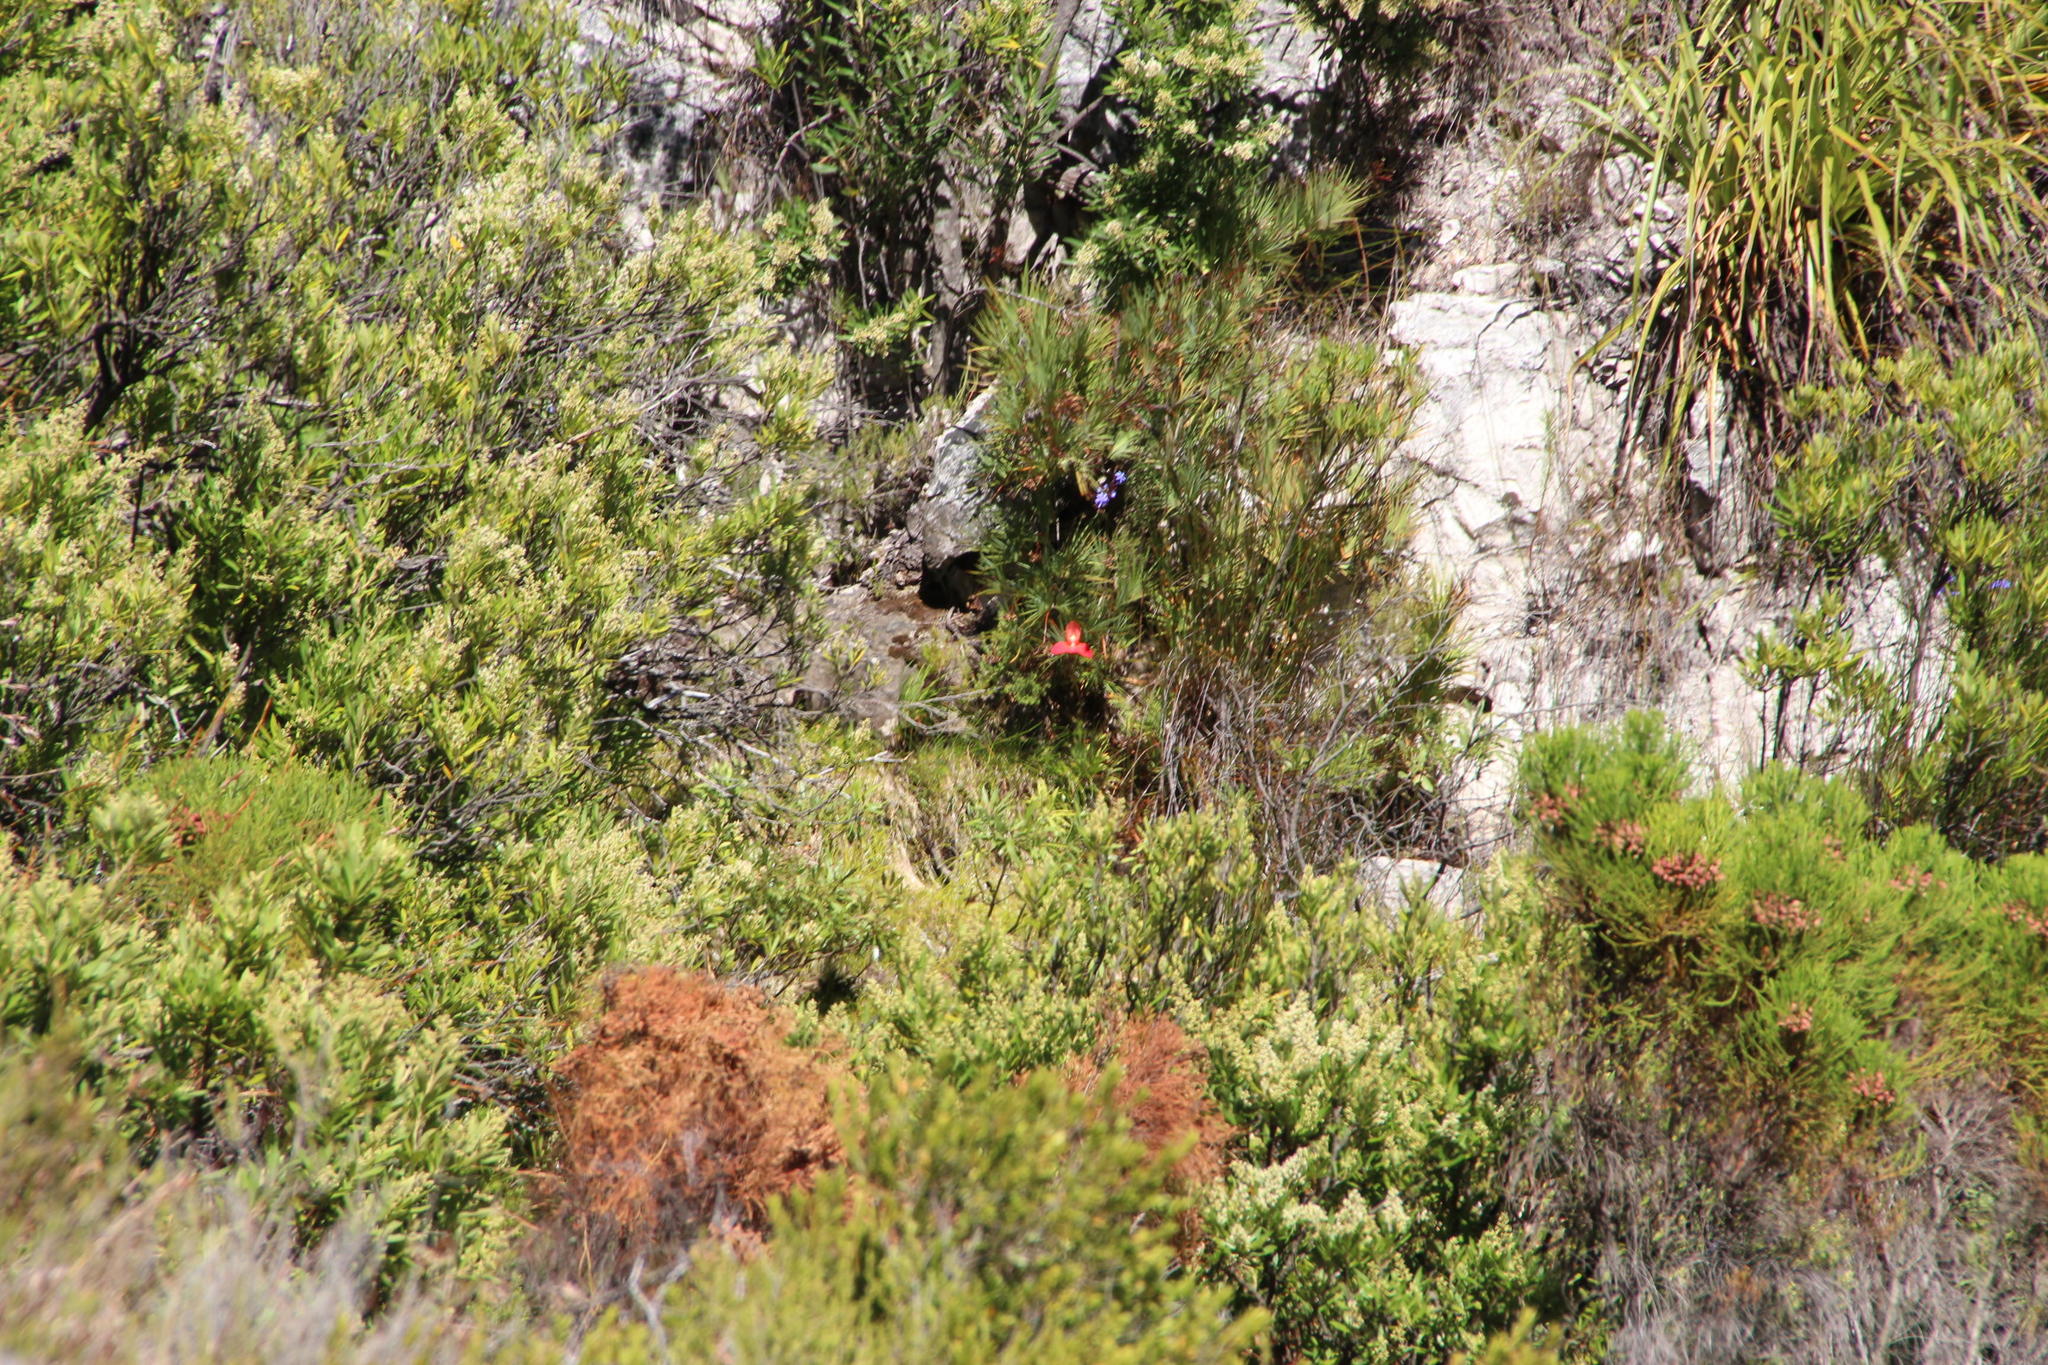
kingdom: Plantae
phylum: Tracheophyta
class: Liliopsida
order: Asparagales
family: Orchidaceae
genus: Disa
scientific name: Disa uniflora
